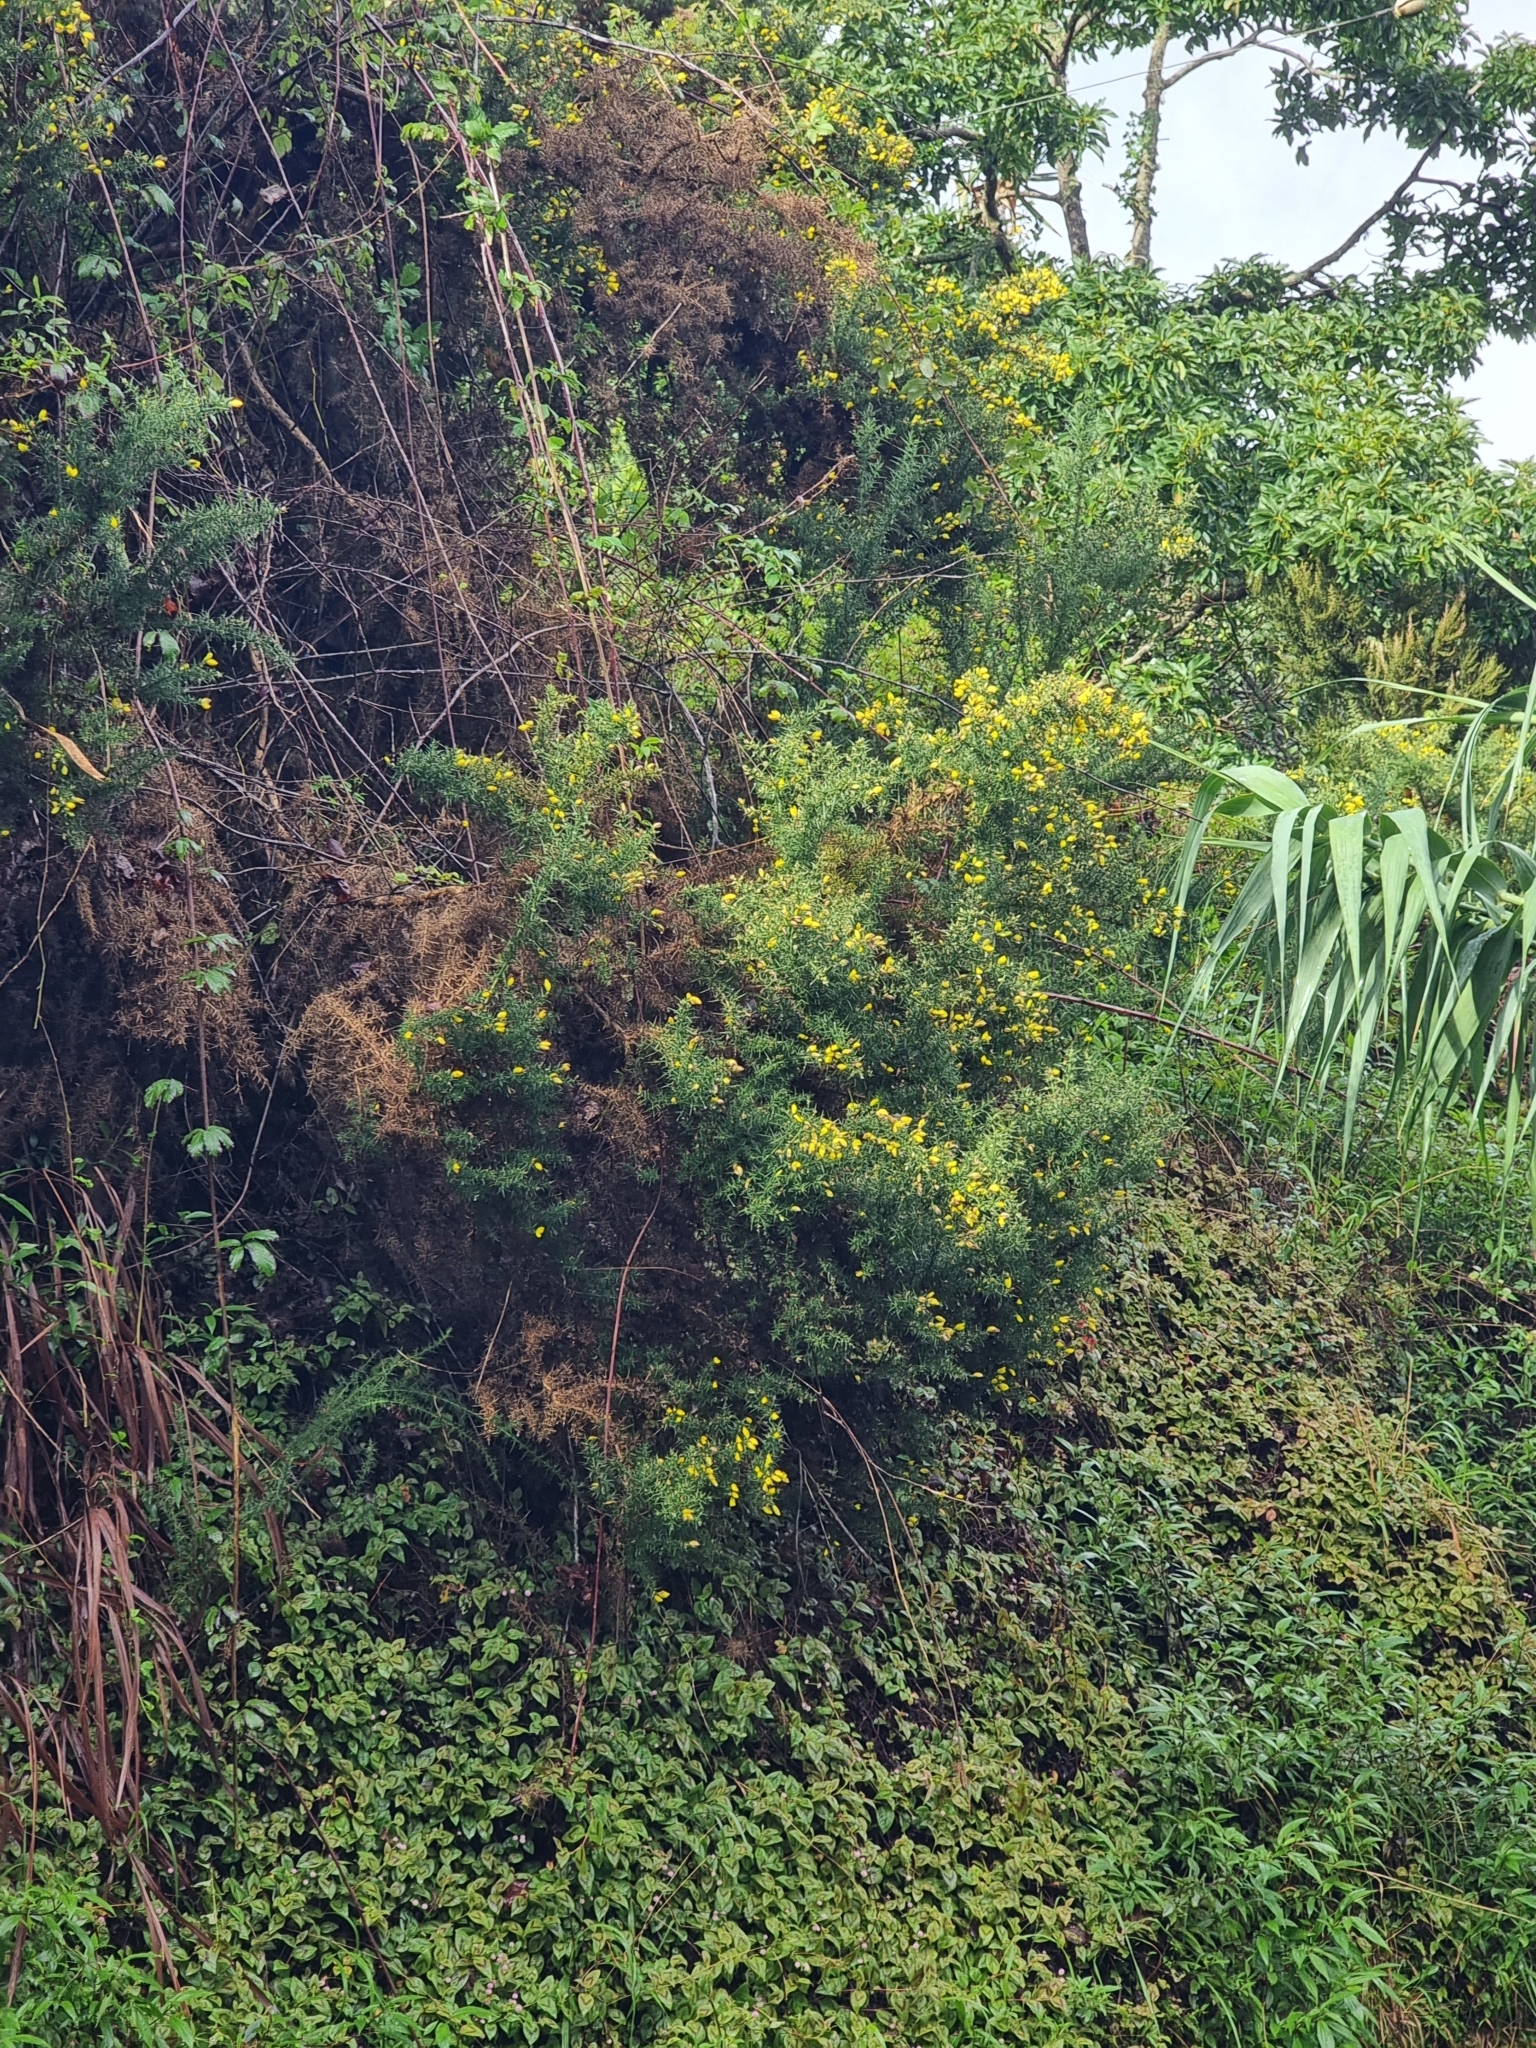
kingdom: Plantae
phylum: Tracheophyta
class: Magnoliopsida
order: Fabales
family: Fabaceae
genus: Ulex
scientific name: Ulex europaeus
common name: Common gorse
